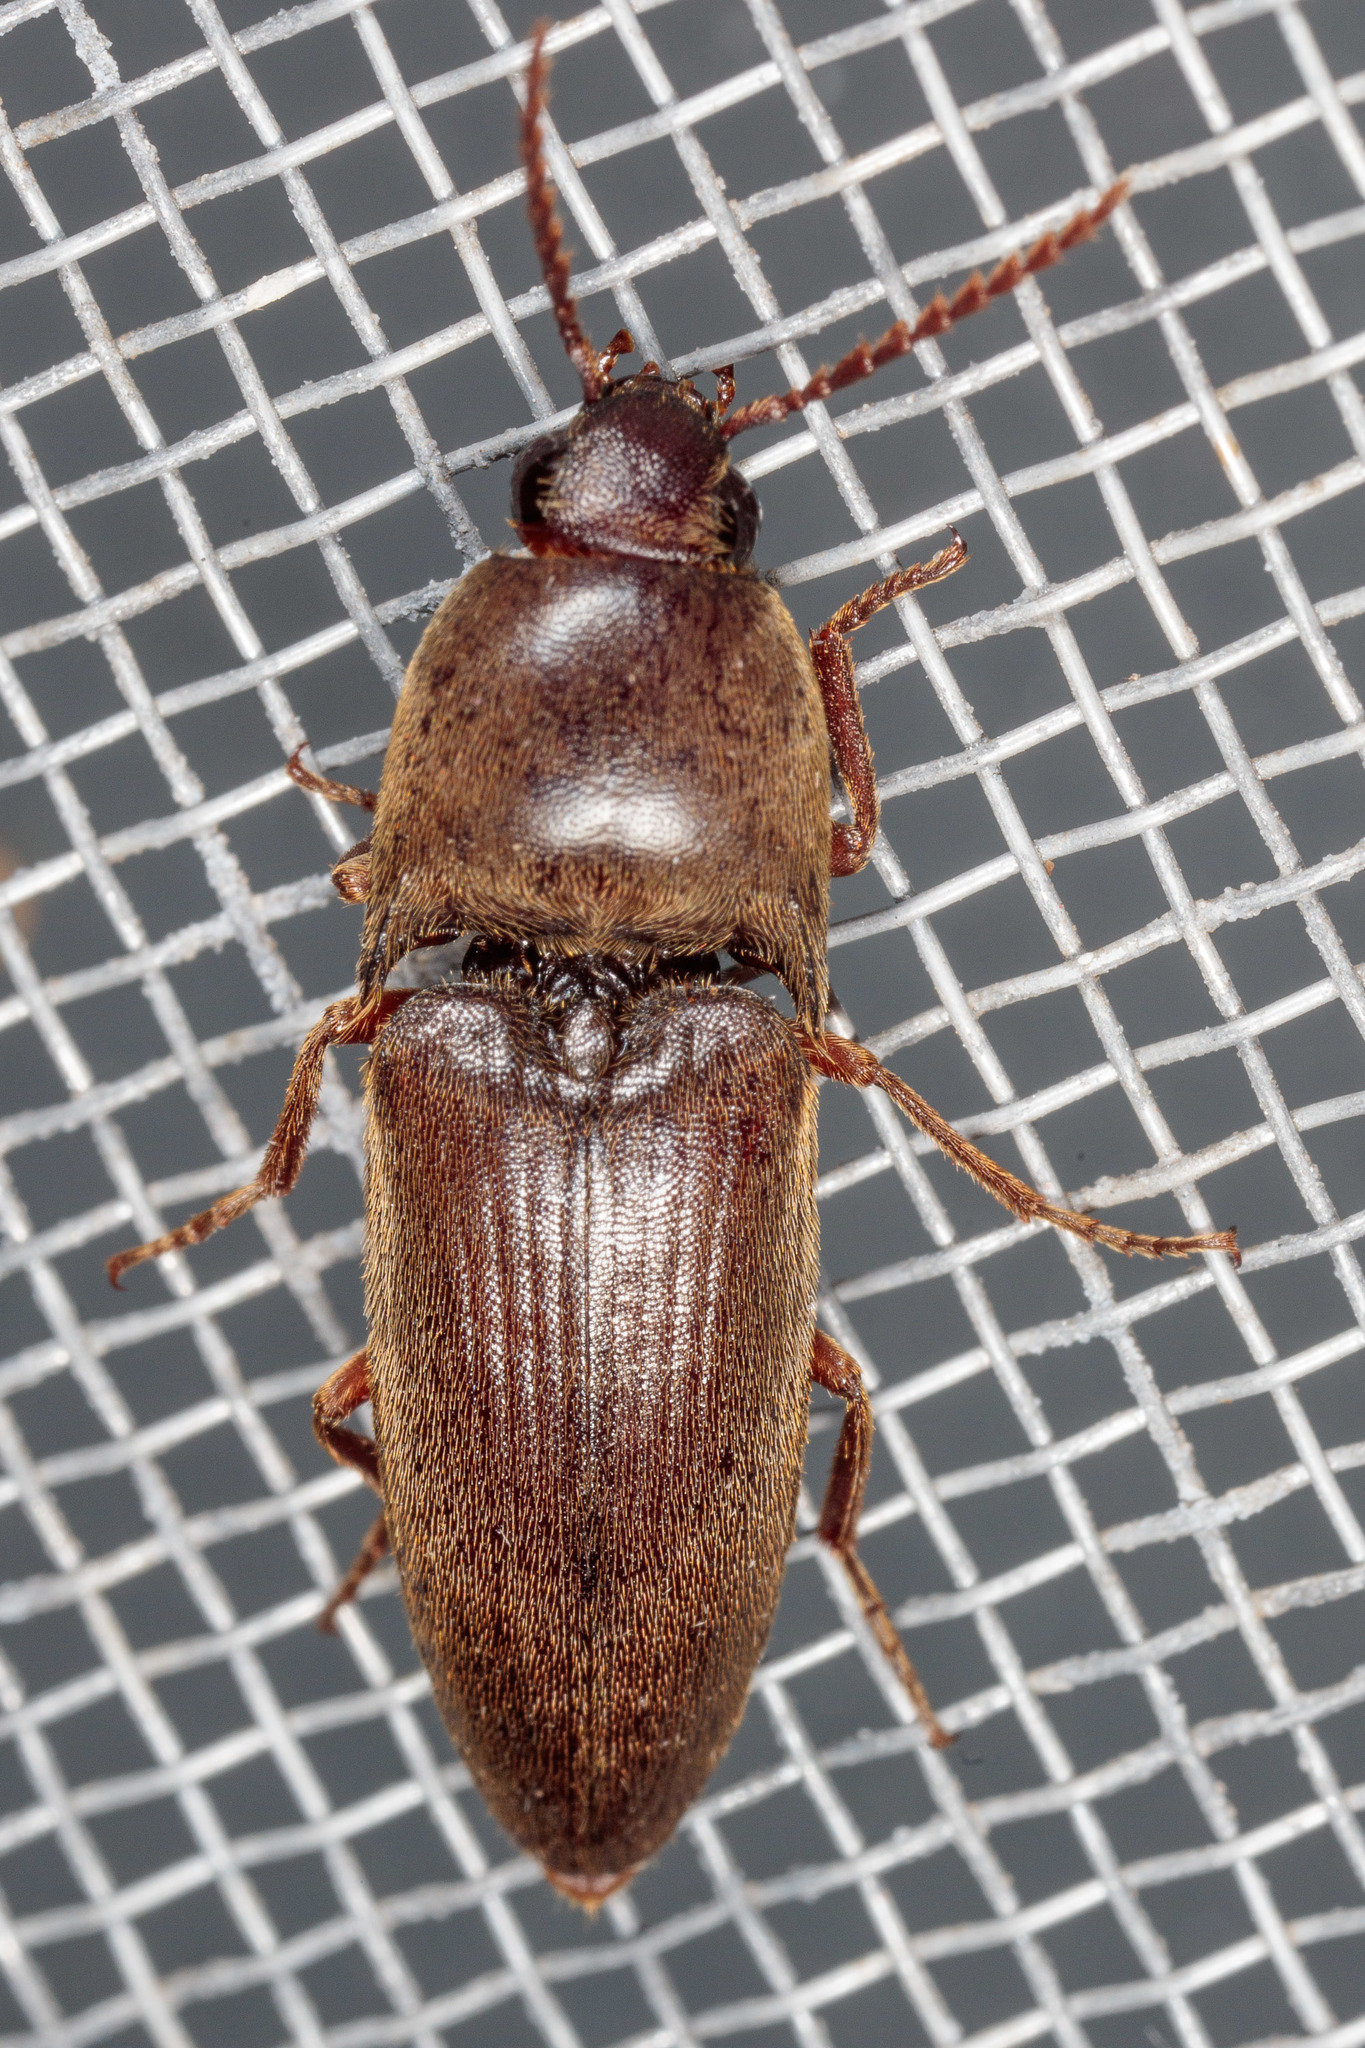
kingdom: Animalia
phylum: Arthropoda
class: Insecta
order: Coleoptera
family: Elateridae
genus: Diplostethus
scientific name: Diplostethus
